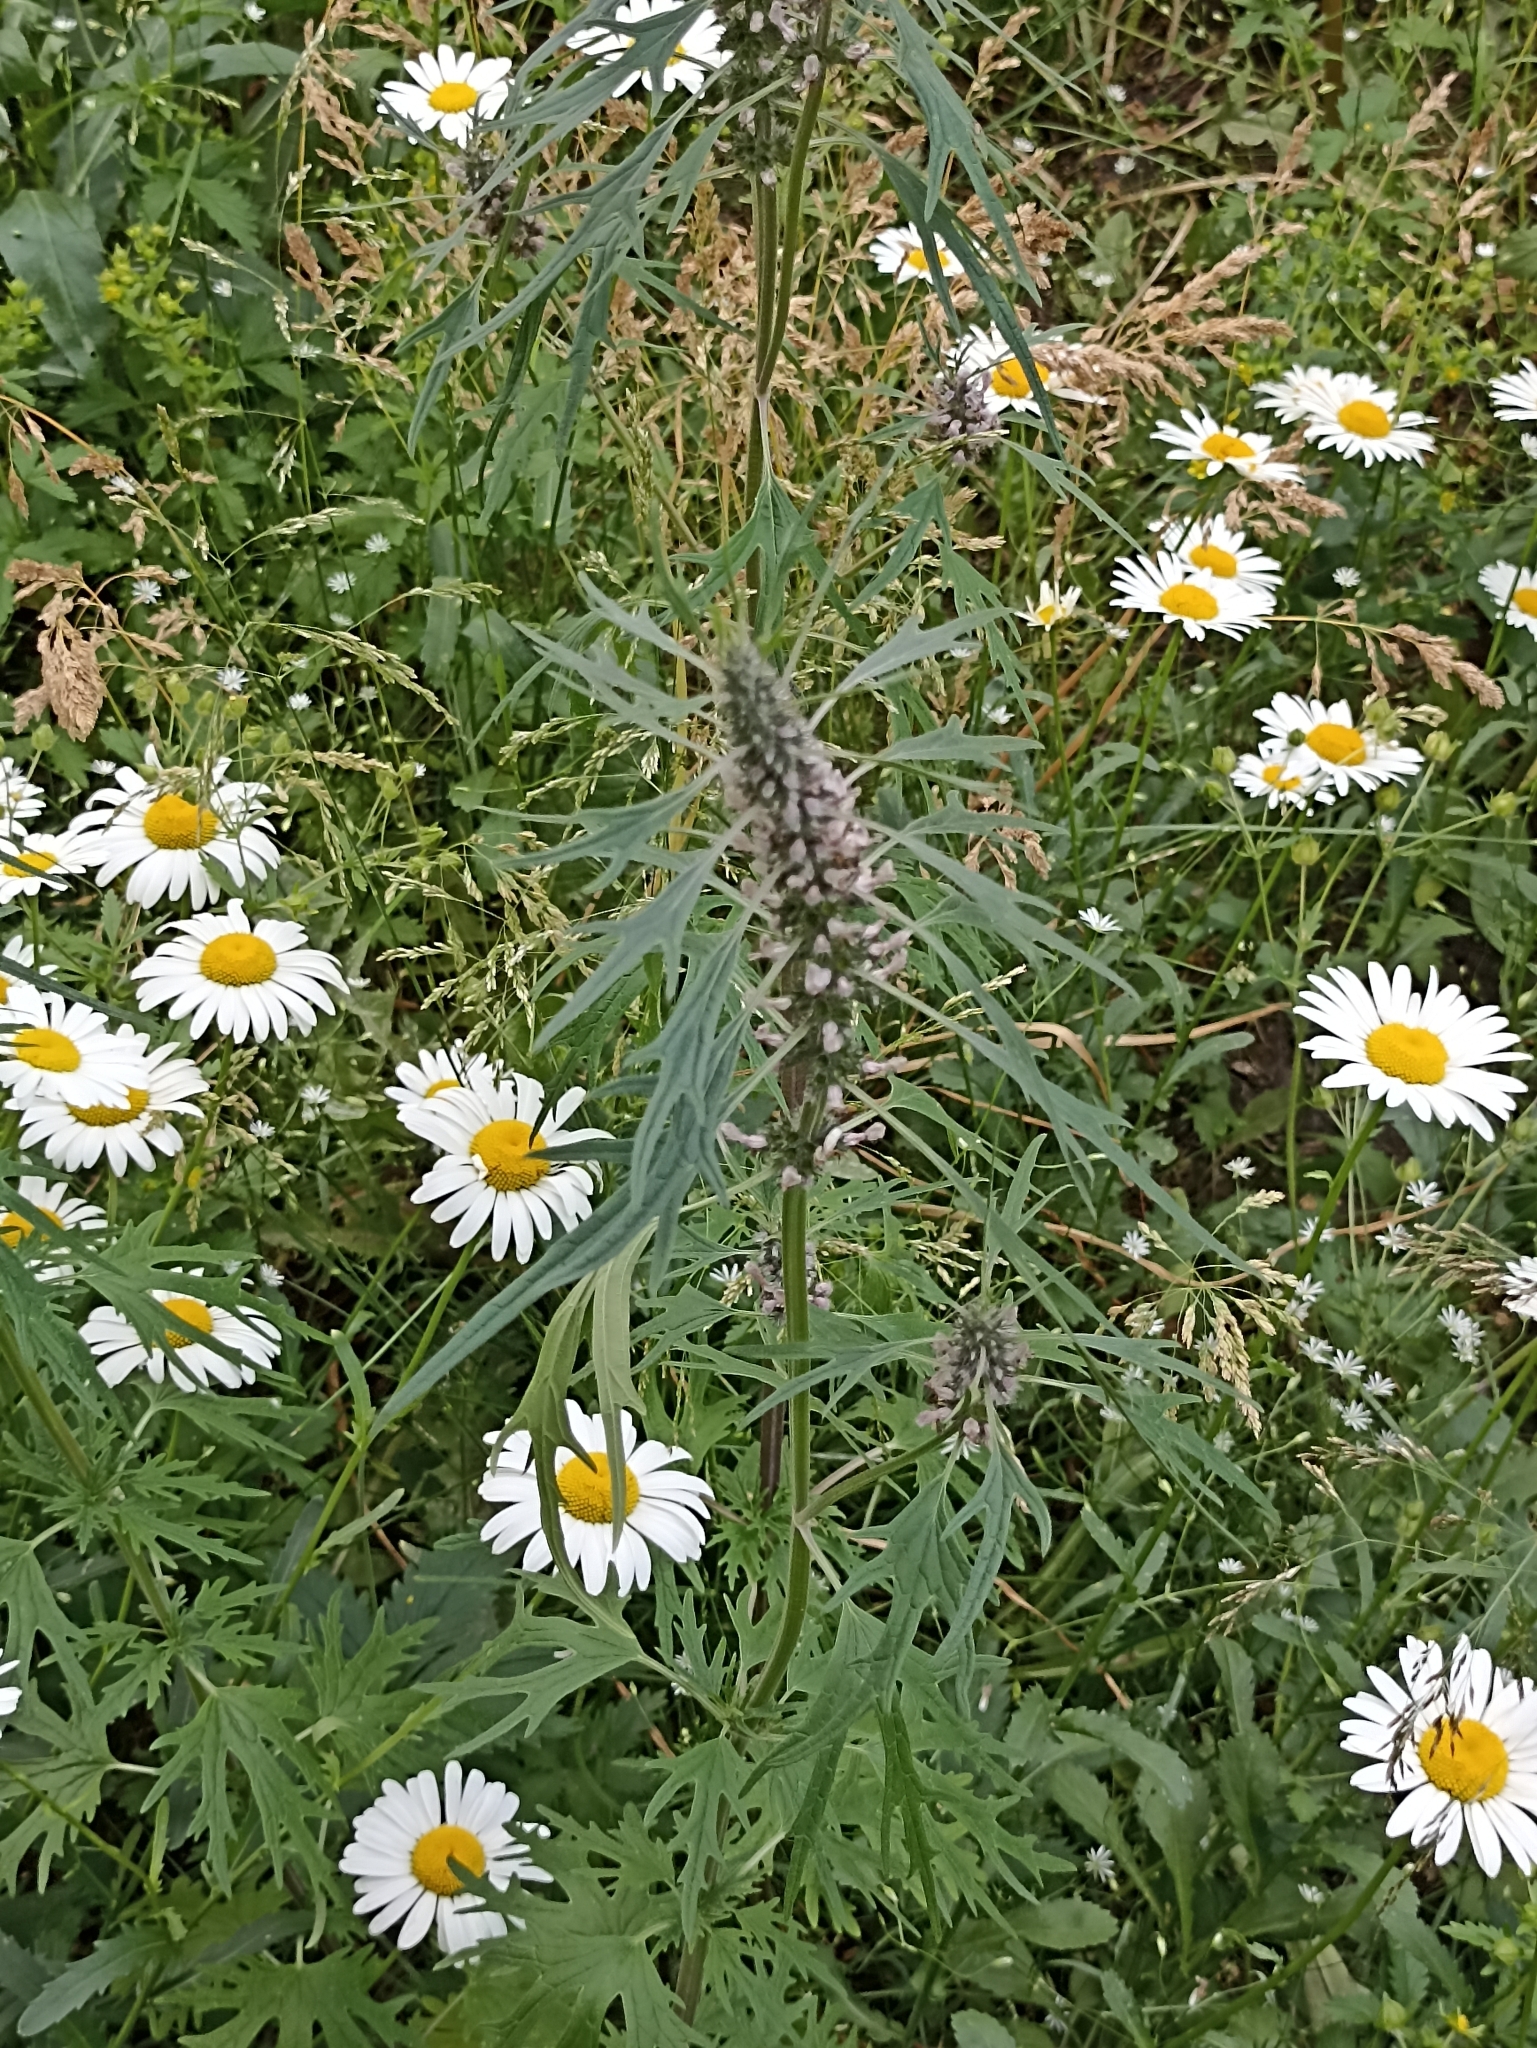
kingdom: Plantae
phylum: Tracheophyta
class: Magnoliopsida
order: Lamiales
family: Lamiaceae
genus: Leonurus
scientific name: Leonurus deminutus
